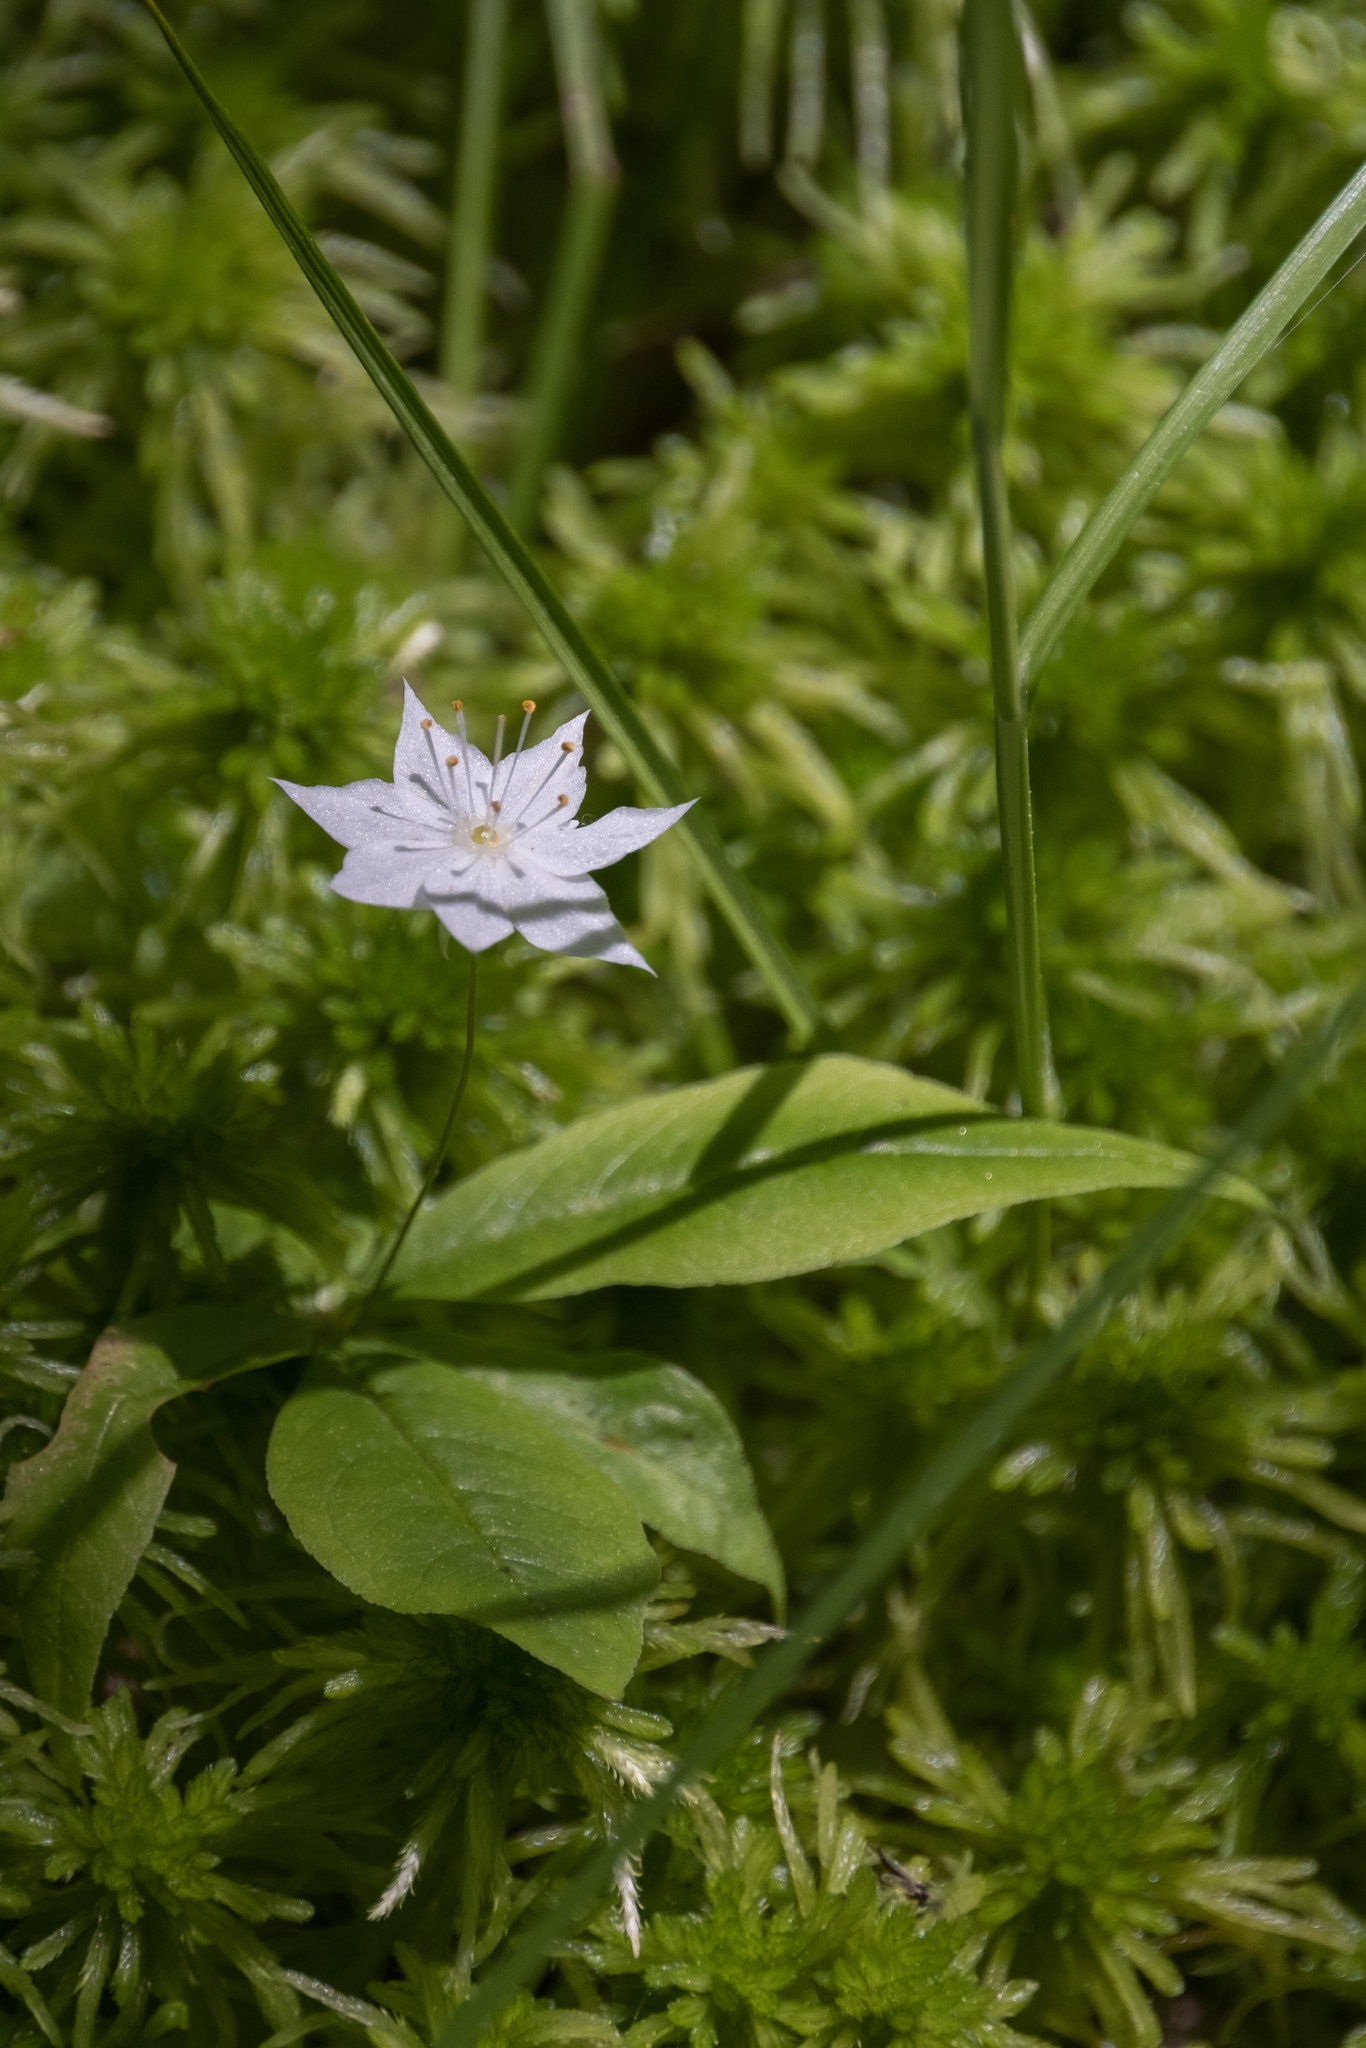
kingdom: Plantae
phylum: Tracheophyta
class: Magnoliopsida
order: Ericales
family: Primulaceae
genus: Lysimachia
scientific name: Lysimachia borealis
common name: American starflower
